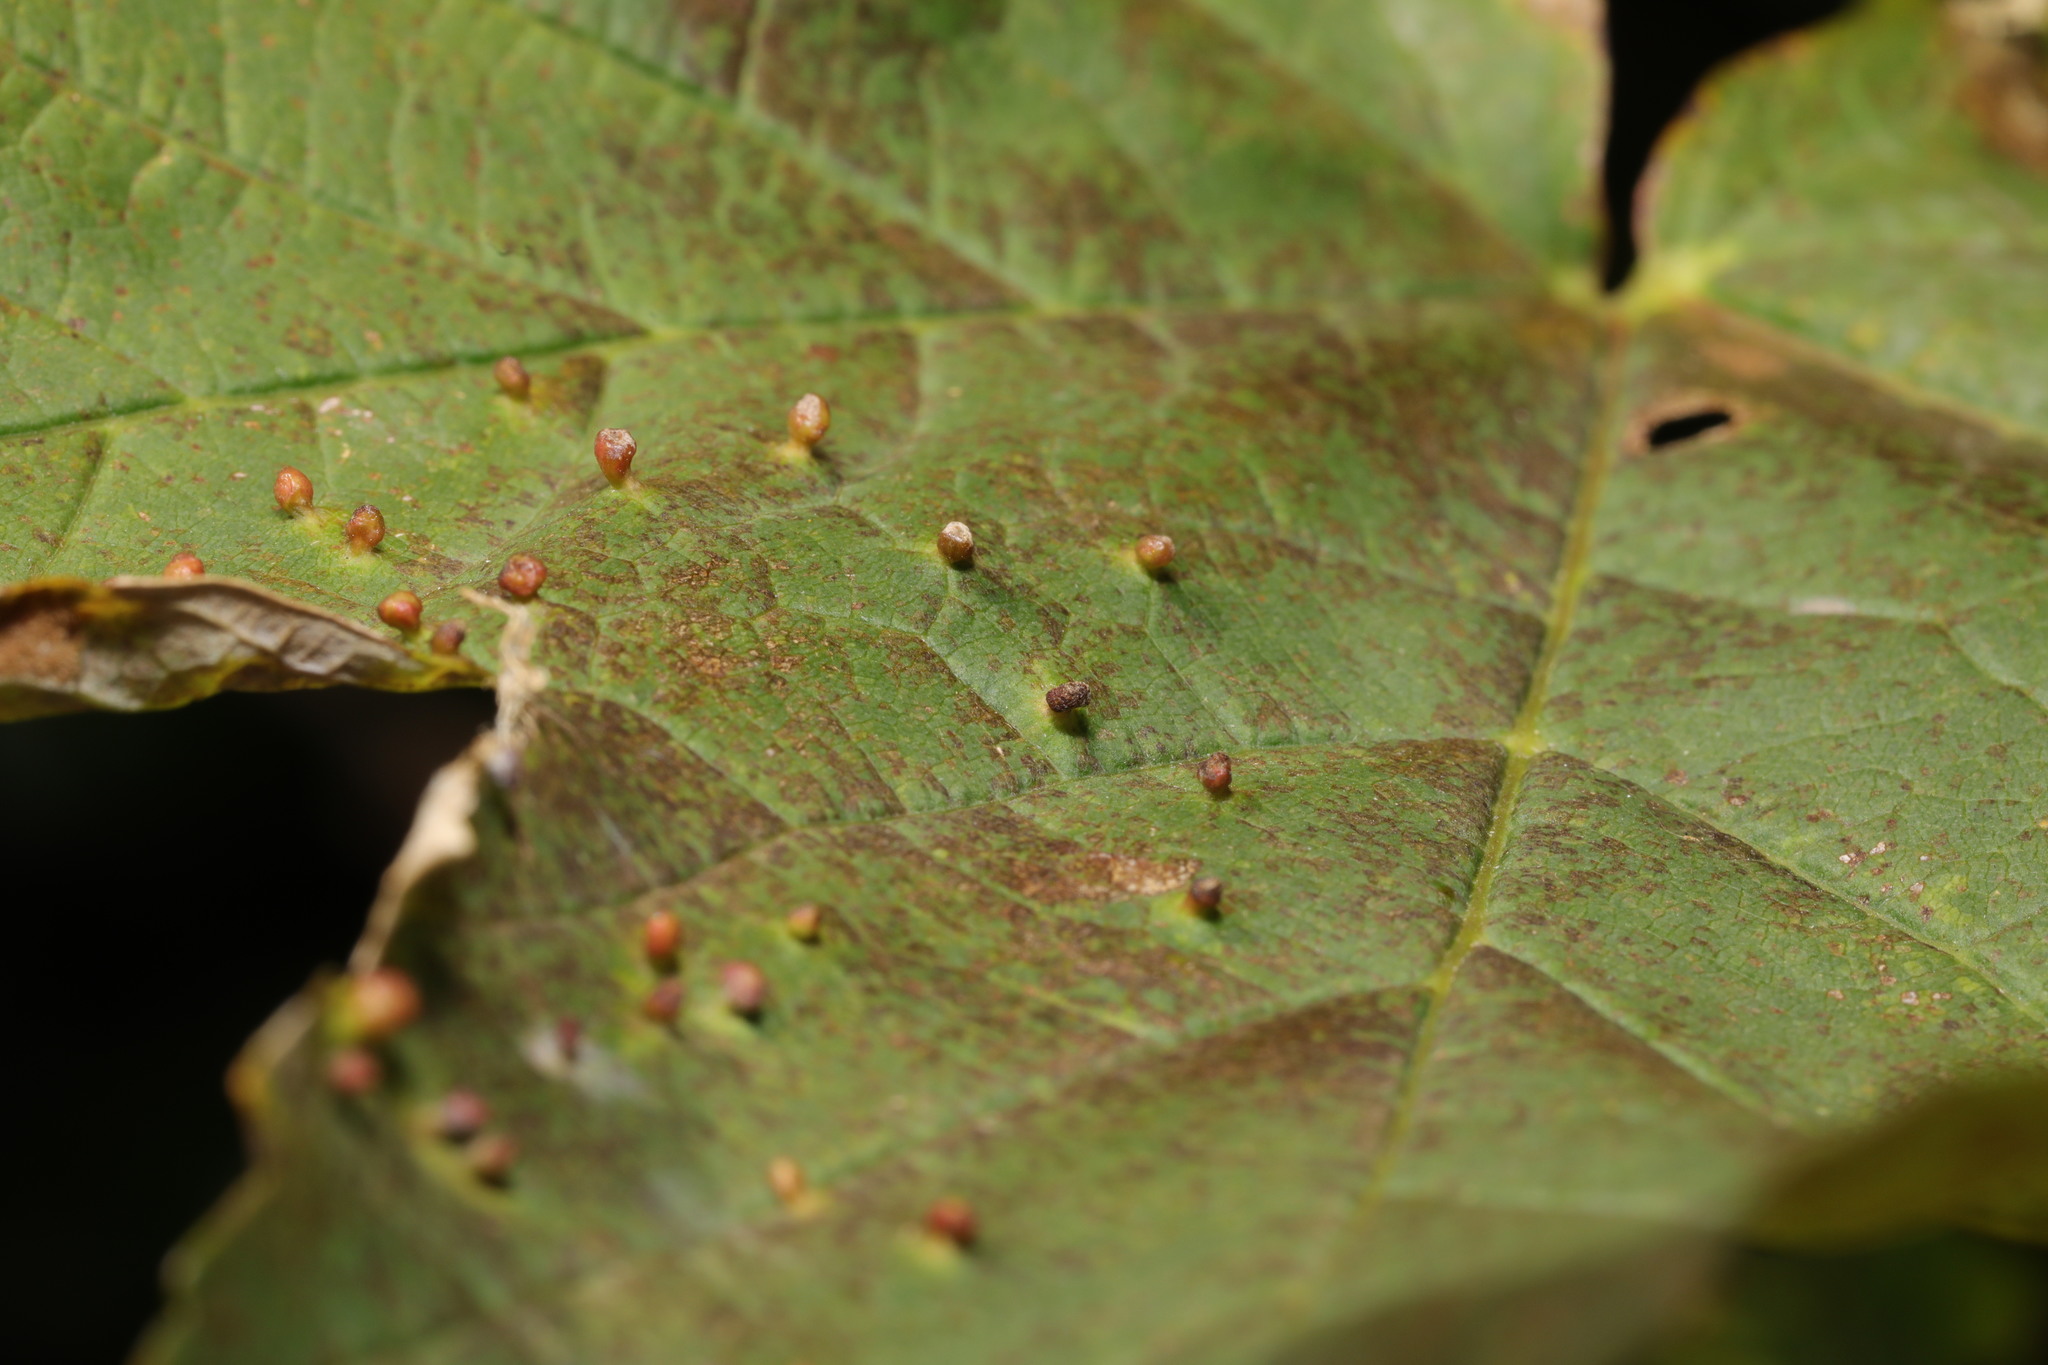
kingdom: Animalia
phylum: Arthropoda
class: Arachnida
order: Trombidiformes
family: Eriophyidae
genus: Aceria
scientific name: Aceria cephaloneus
